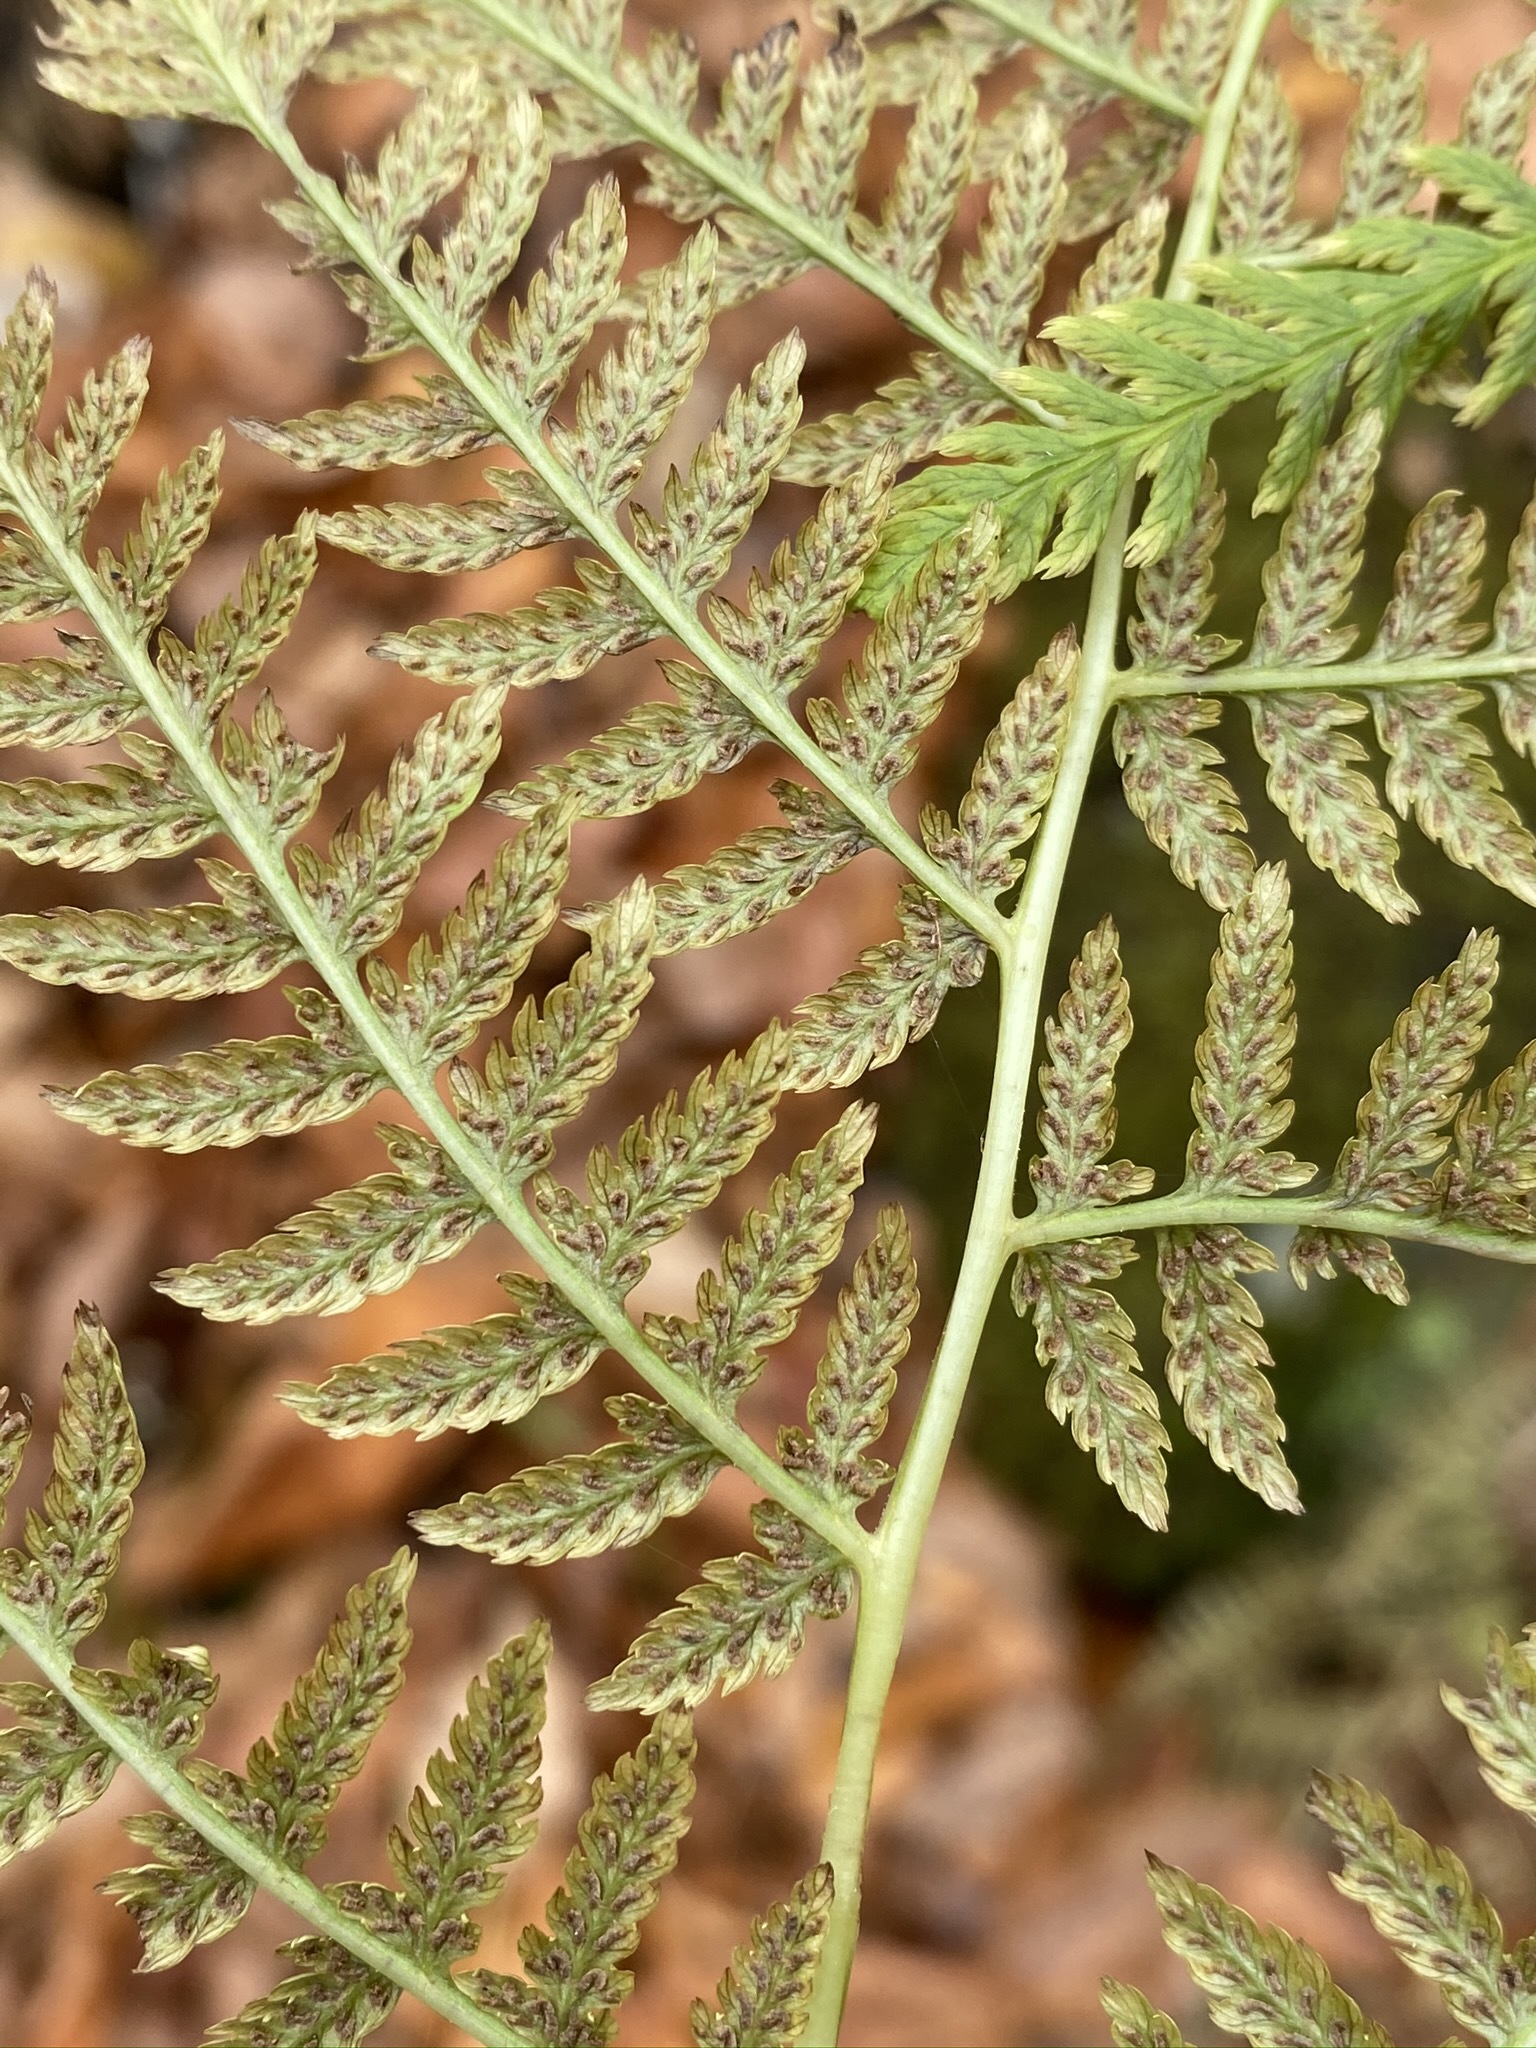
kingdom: Plantae
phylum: Tracheophyta
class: Polypodiopsida
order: Polypodiales
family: Athyriaceae
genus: Athyrium
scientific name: Athyrium angustum
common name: Northern lady fern
